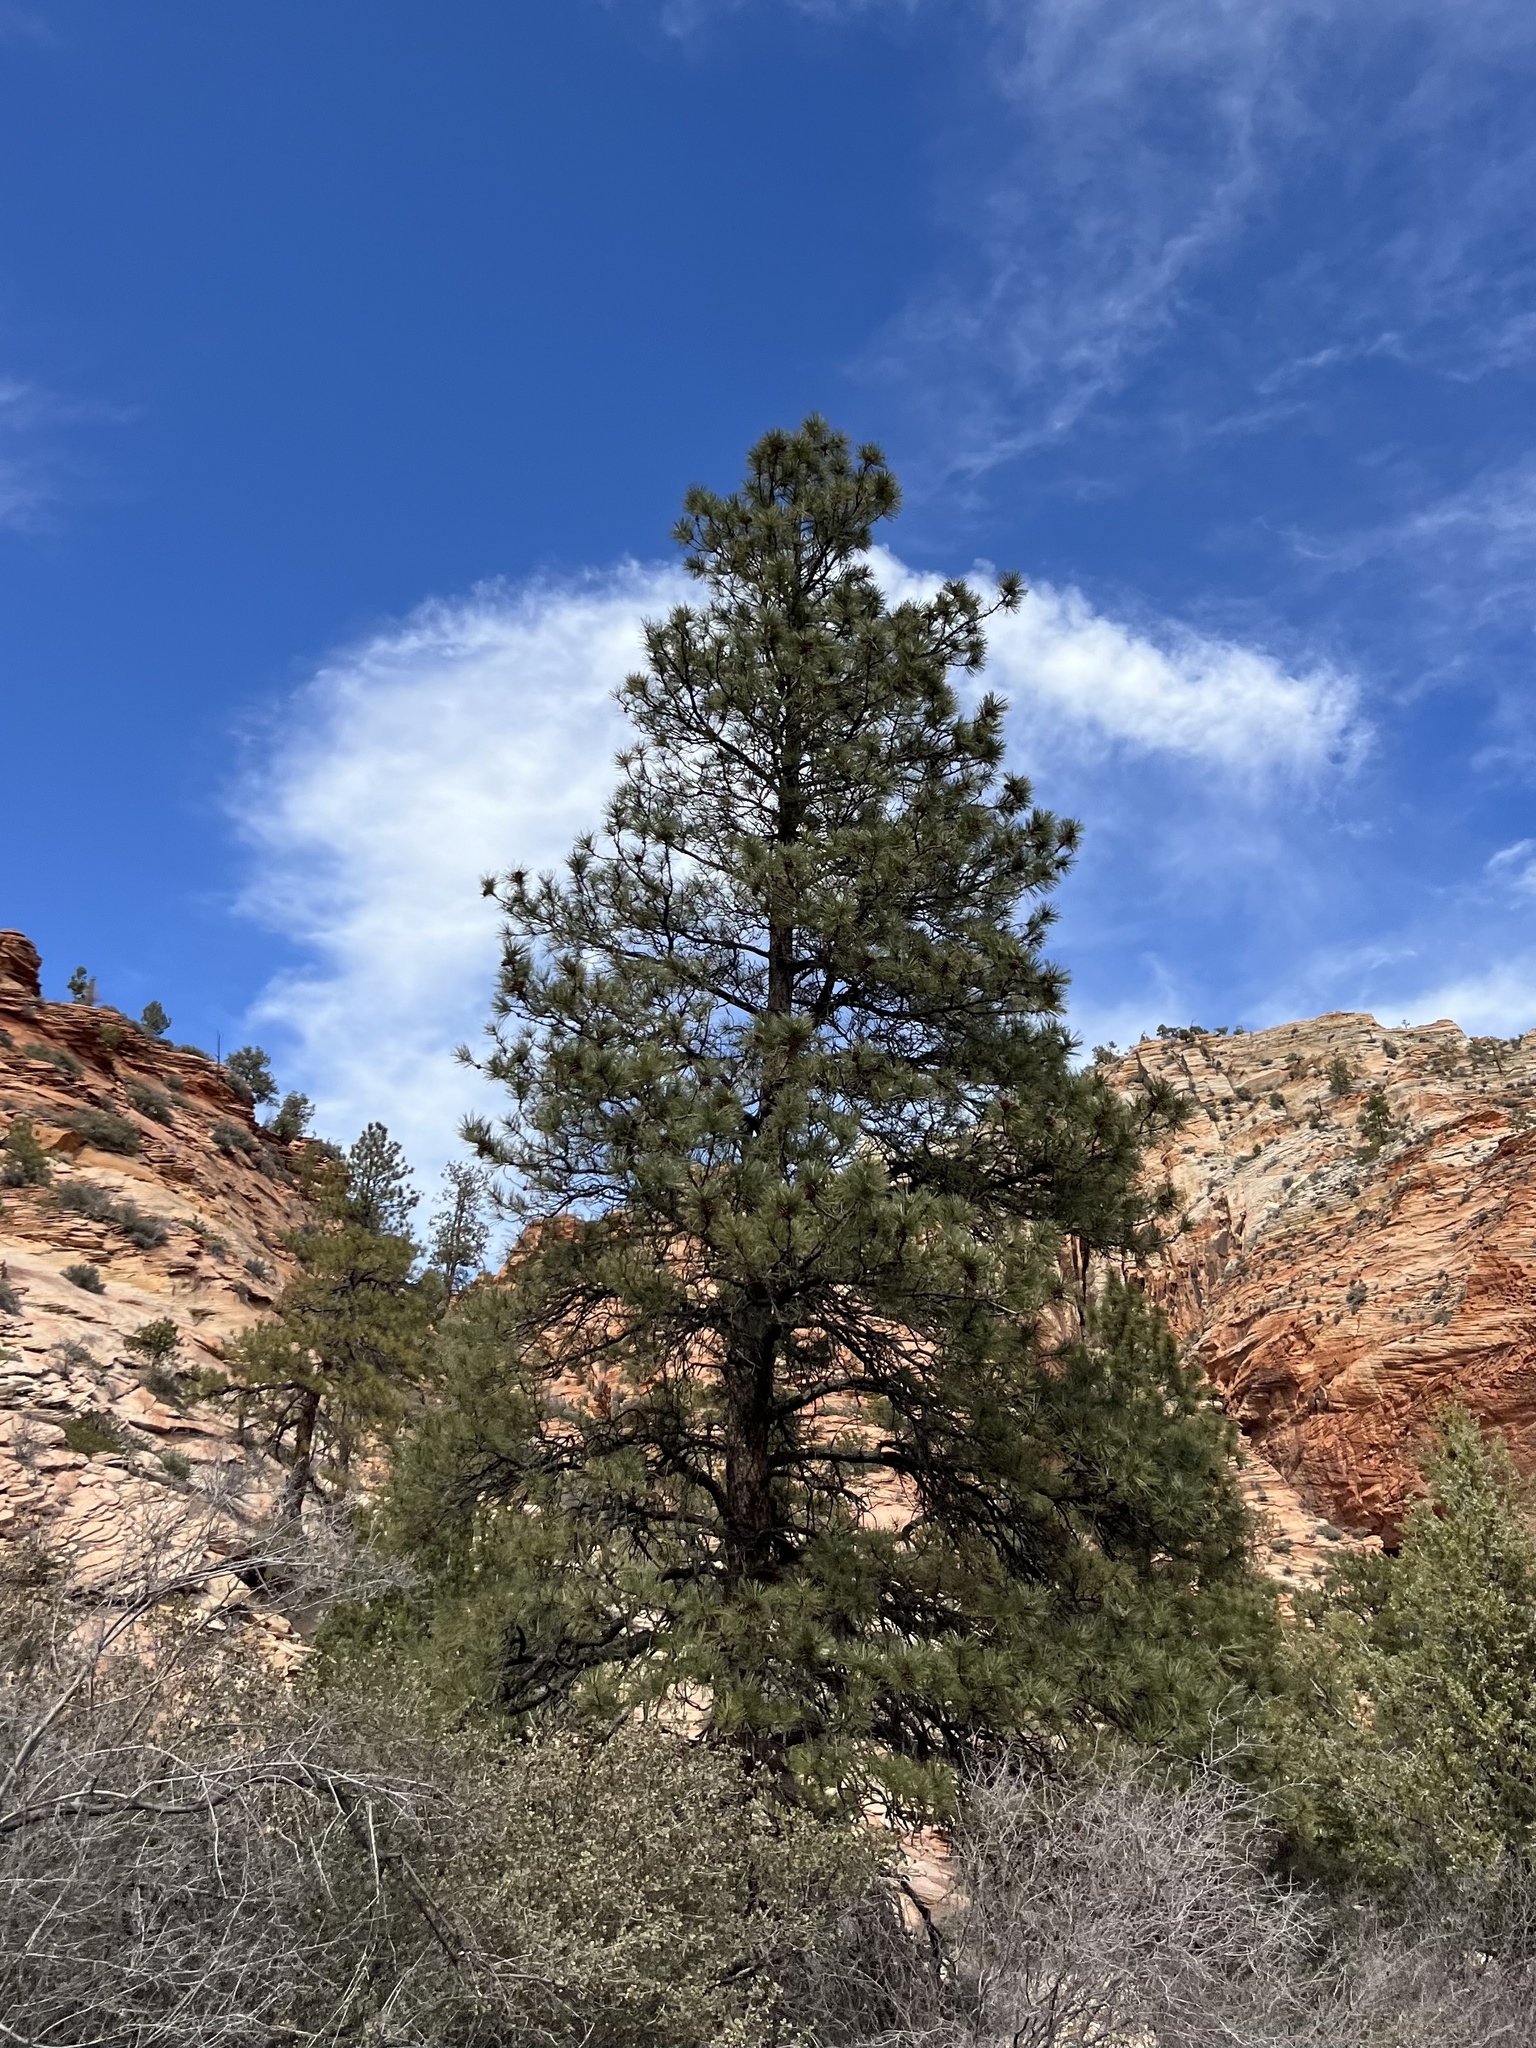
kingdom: Plantae
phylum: Tracheophyta
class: Pinopsida
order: Pinales
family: Pinaceae
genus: Pinus
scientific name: Pinus ponderosa
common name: Western yellow-pine
